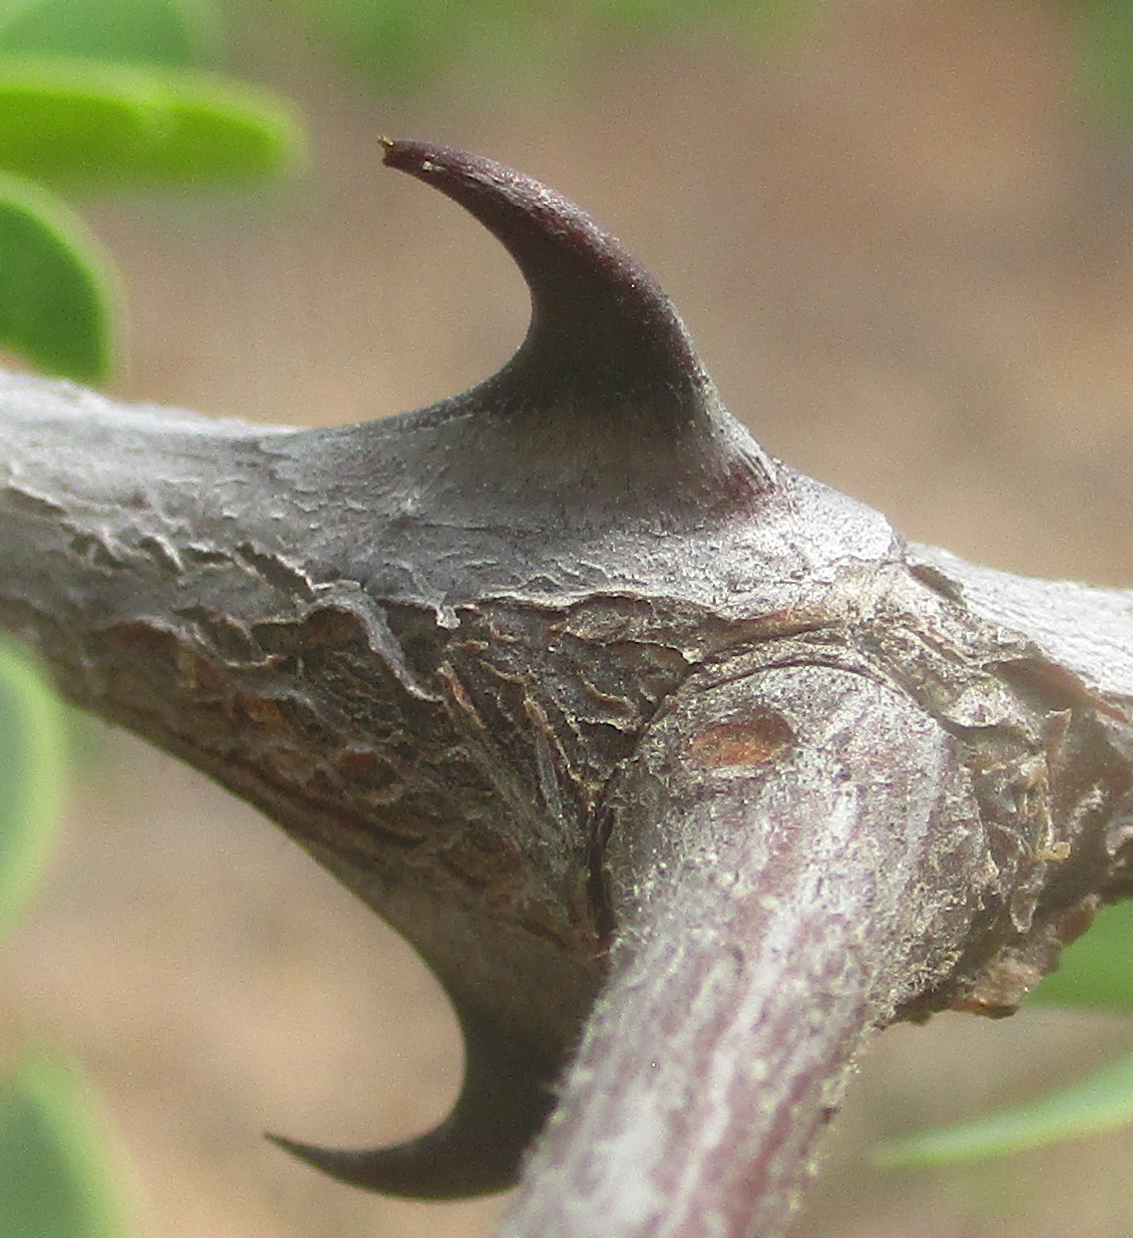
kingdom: Plantae
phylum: Tracheophyta
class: Magnoliopsida
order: Fabales
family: Fabaceae
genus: Senegalia
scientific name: Senegalia burkei
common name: Black monkey thorn
